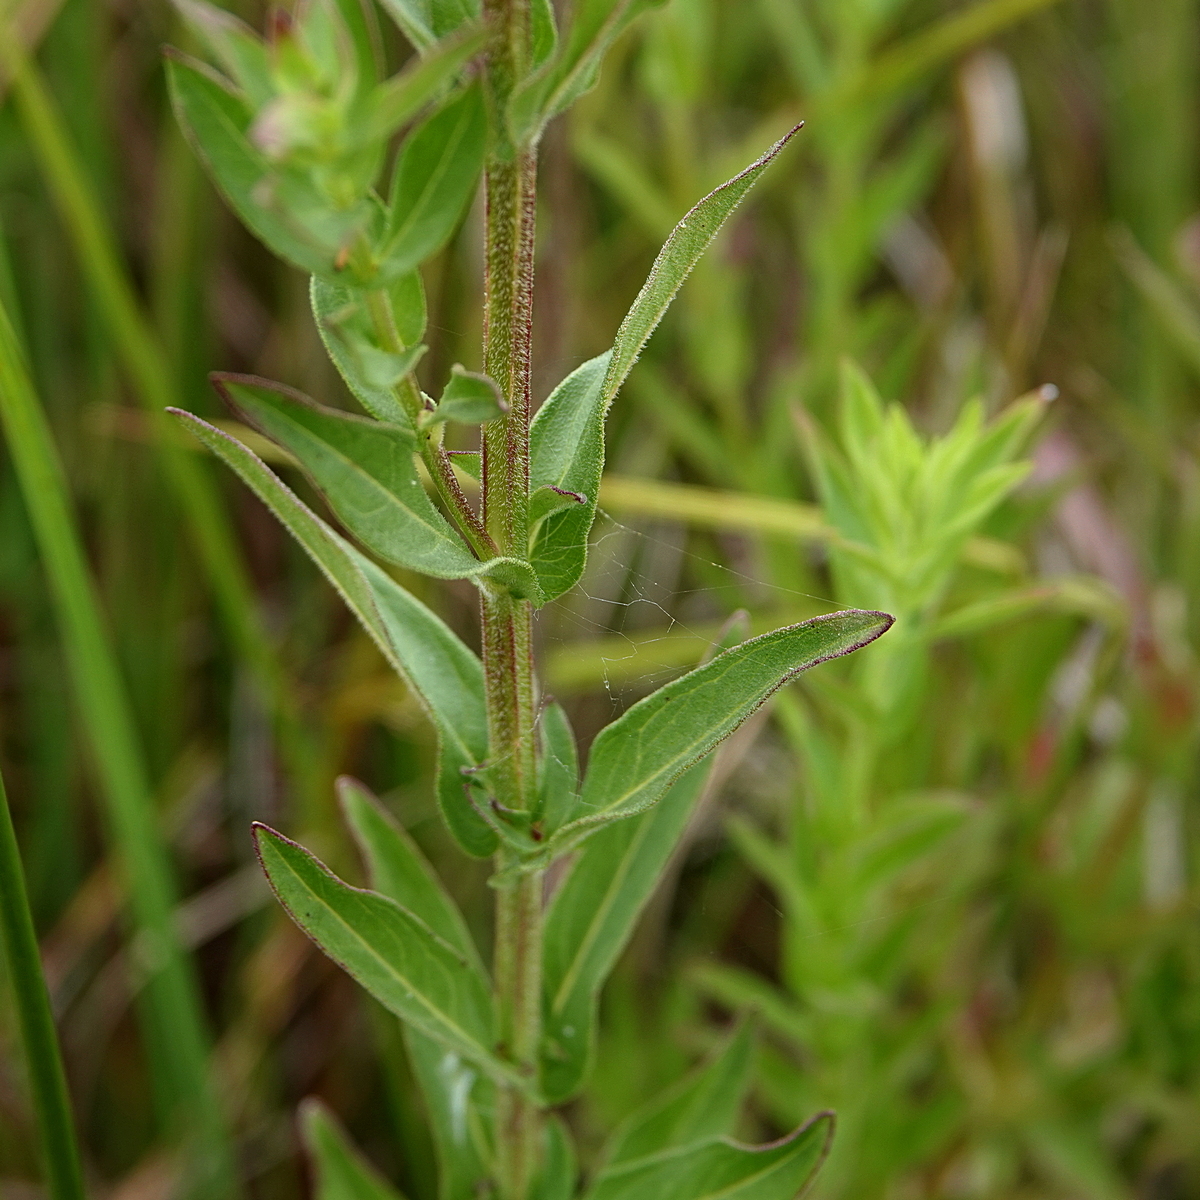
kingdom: Plantae
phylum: Tracheophyta
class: Magnoliopsida
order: Myrtales
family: Lythraceae
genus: Lythrum
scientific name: Lythrum salicaria
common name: Purple loosestrife
